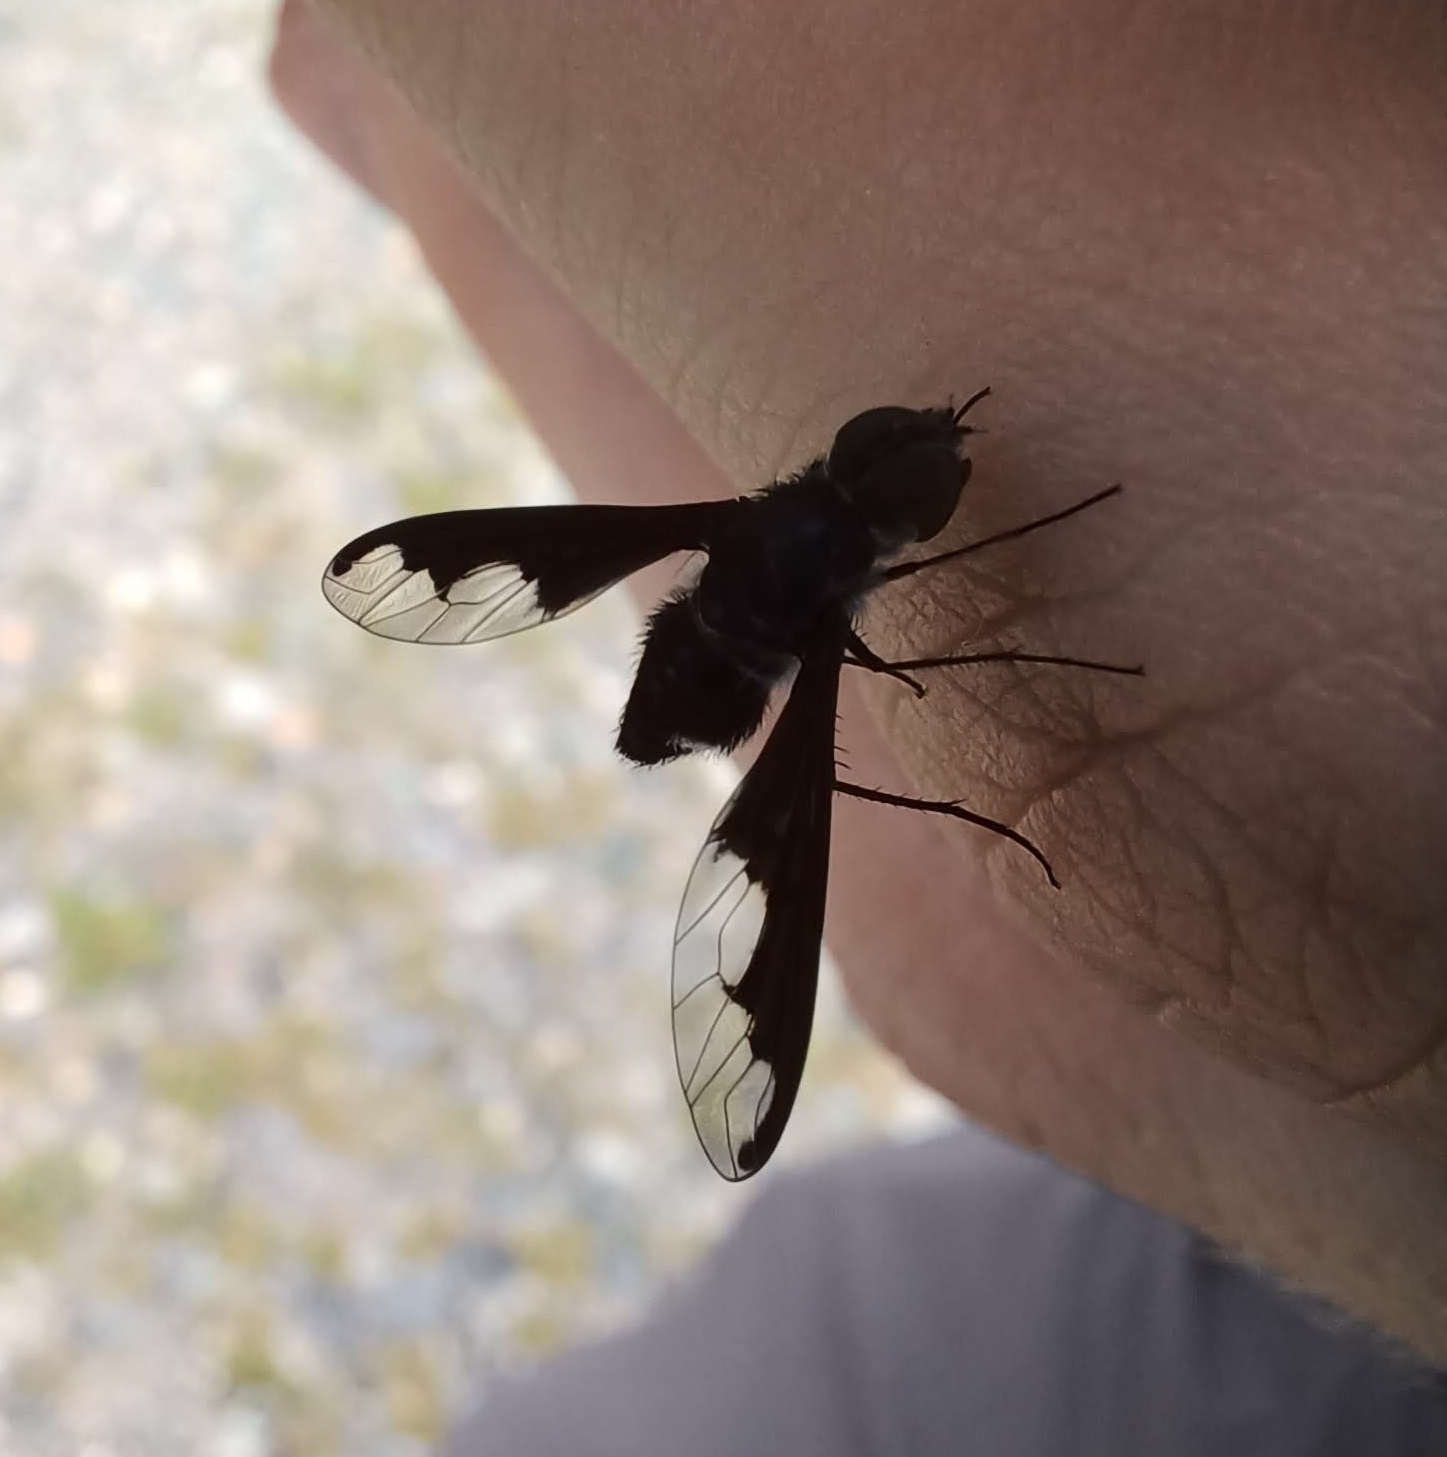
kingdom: Animalia
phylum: Arthropoda
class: Insecta
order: Diptera
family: Bombyliidae
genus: Anthrax
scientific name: Anthrax argyropygus
